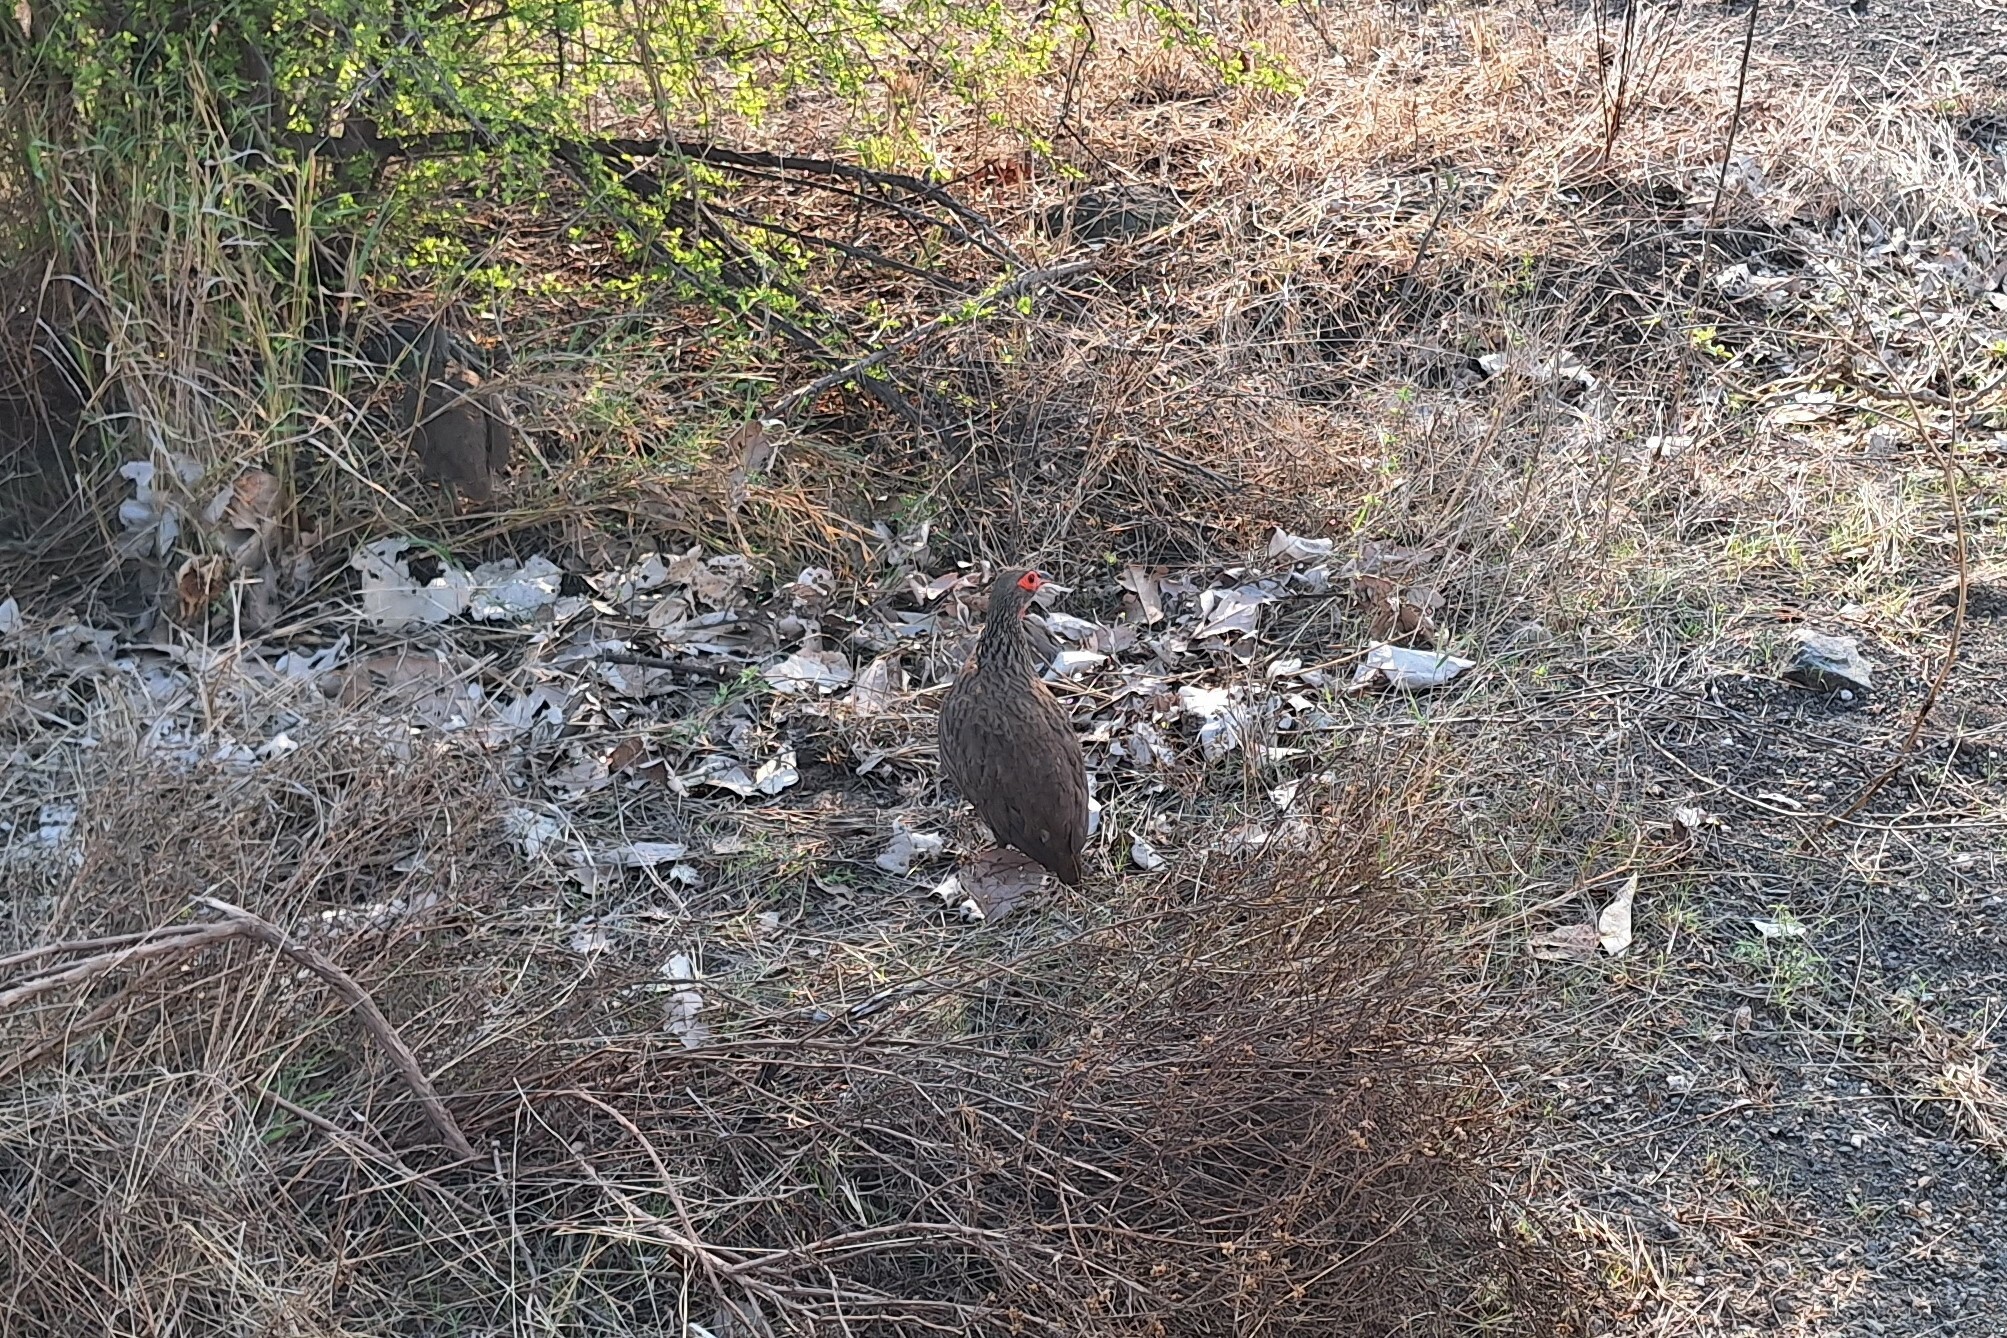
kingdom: Animalia
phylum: Chordata
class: Aves
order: Galliformes
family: Phasianidae
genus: Pternistis
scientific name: Pternistis swainsonii
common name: Swainson's spurfowl
